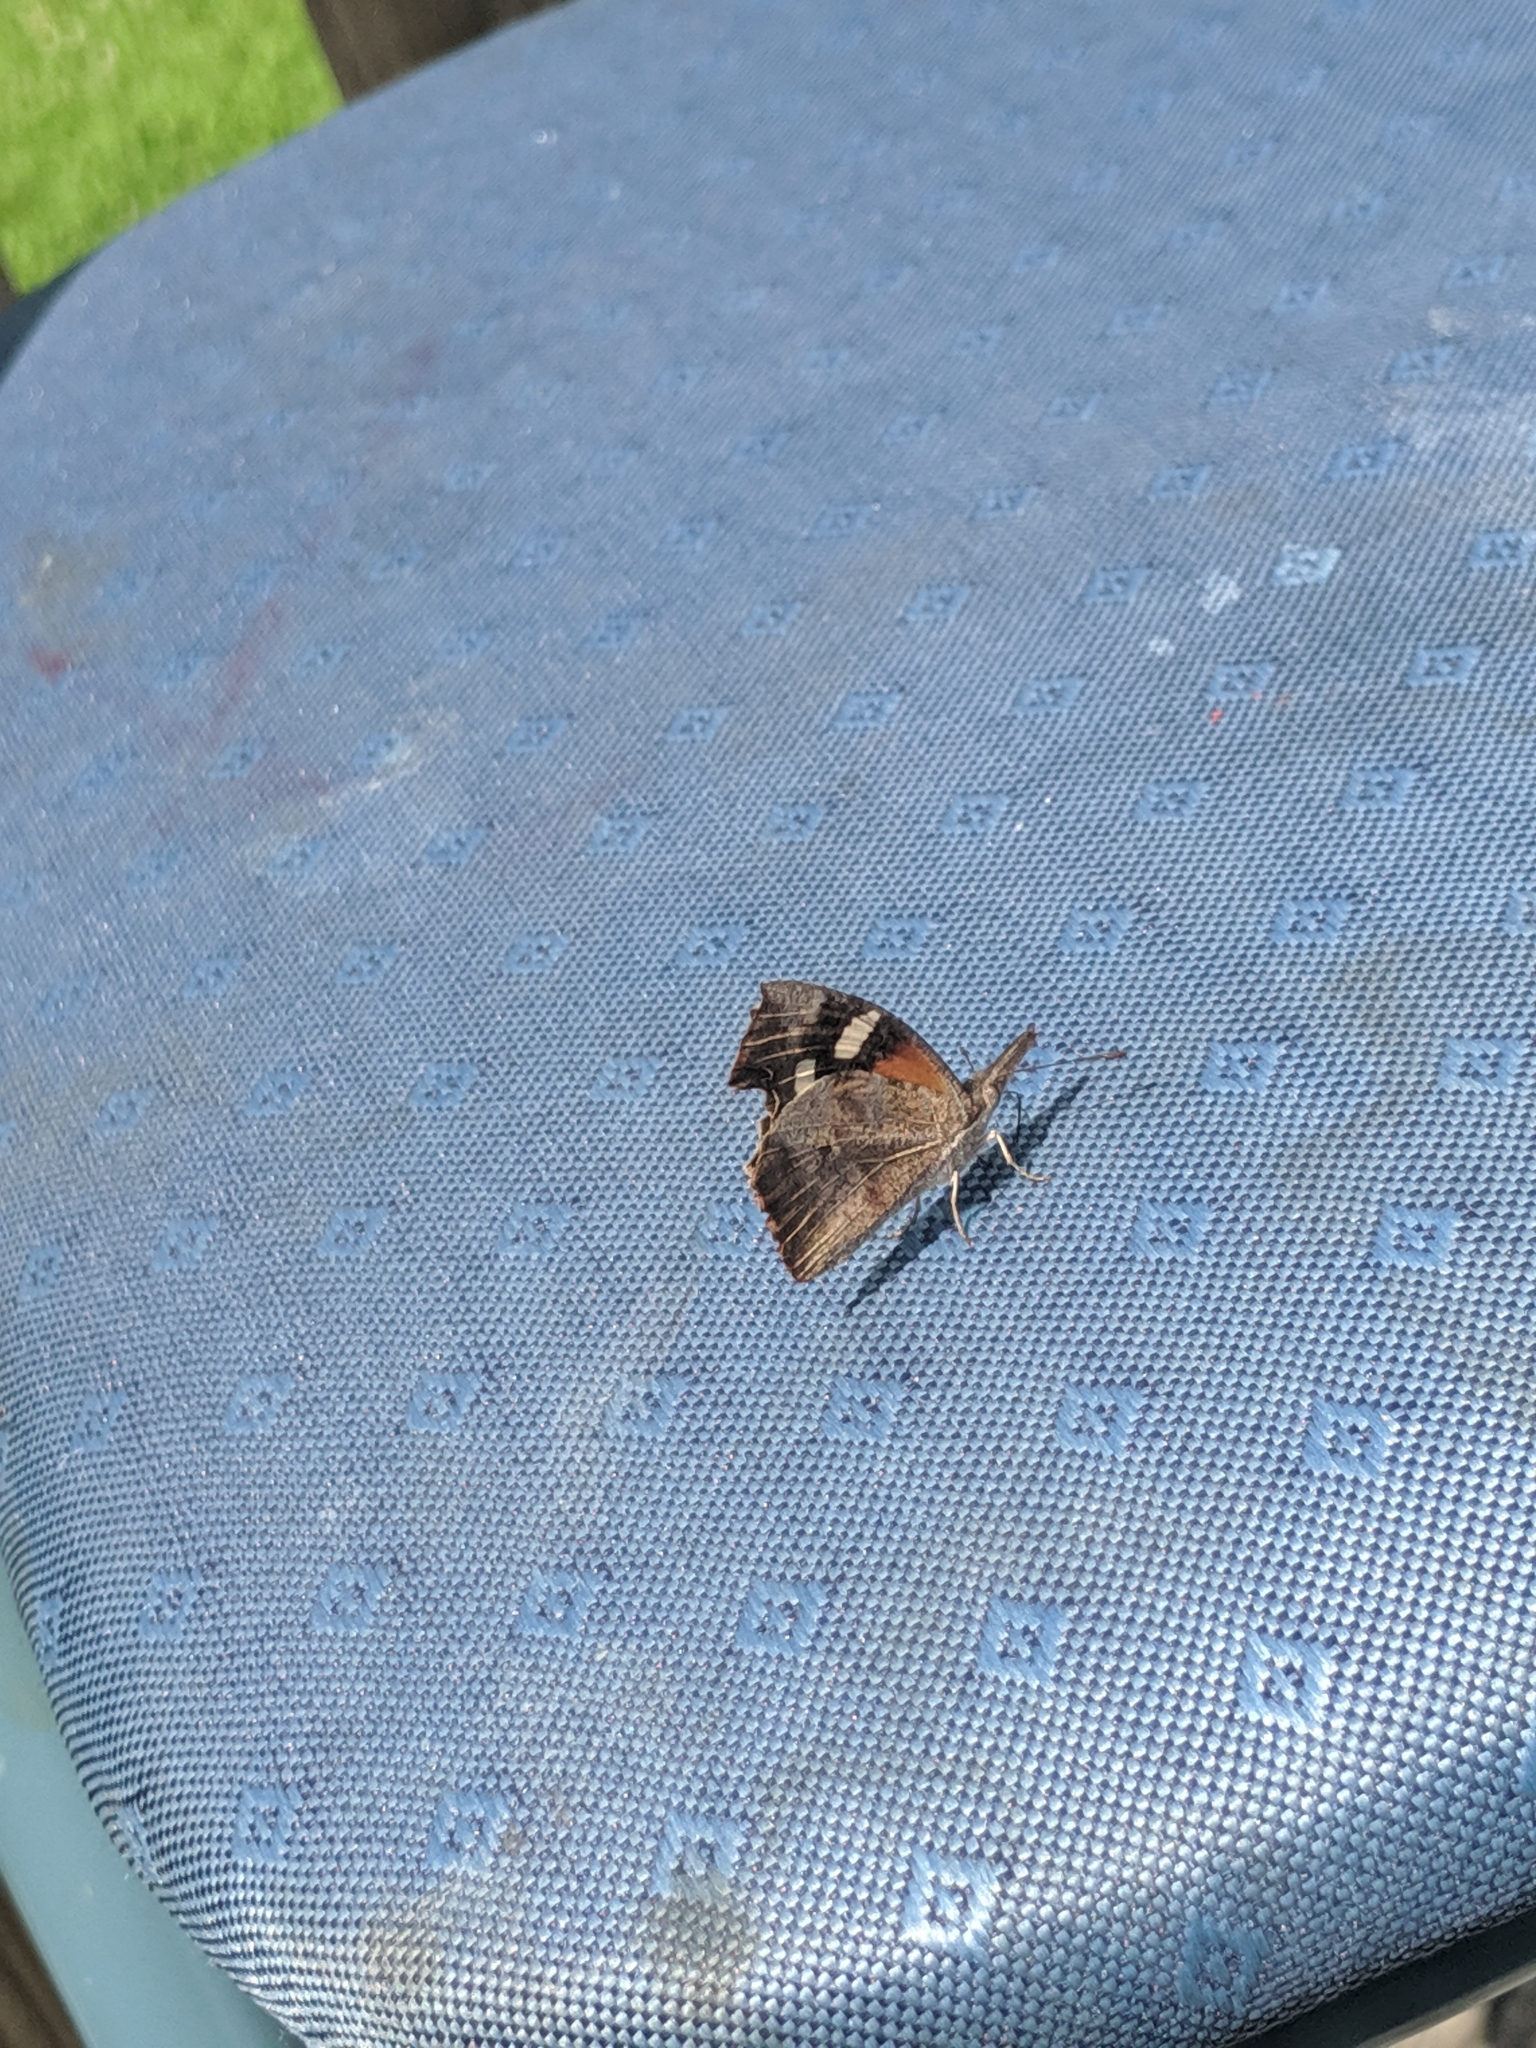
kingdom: Animalia
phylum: Arthropoda
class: Insecta
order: Lepidoptera
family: Nymphalidae
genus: Libytheana
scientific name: Libytheana carinenta
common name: American snout
